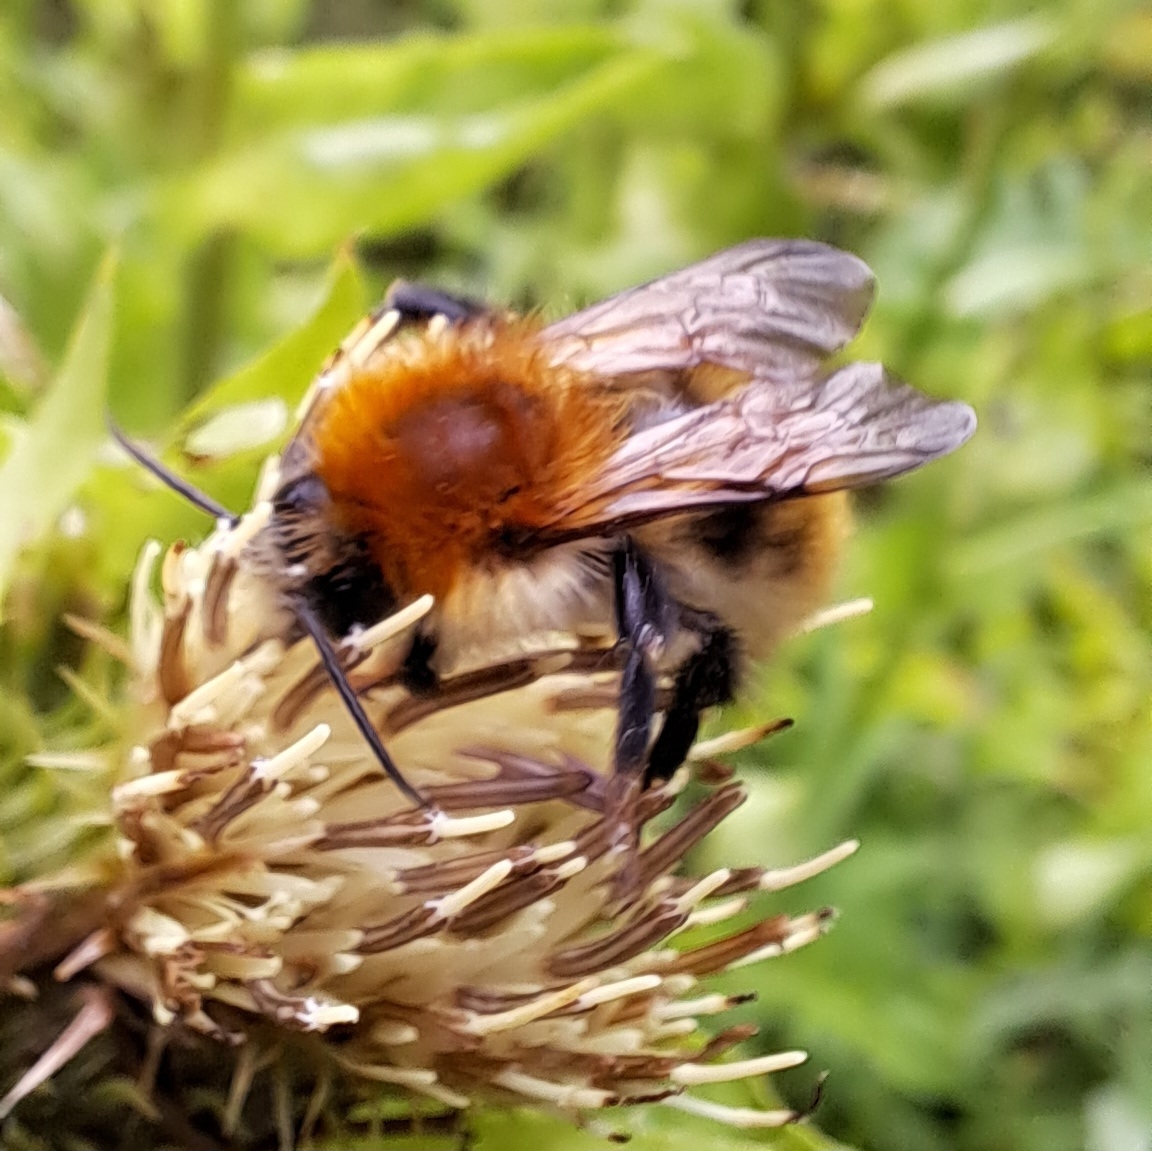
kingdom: Animalia
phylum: Arthropoda
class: Insecta
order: Hymenoptera
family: Apidae
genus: Bombus
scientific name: Bombus pascuorum
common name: Common carder bee
